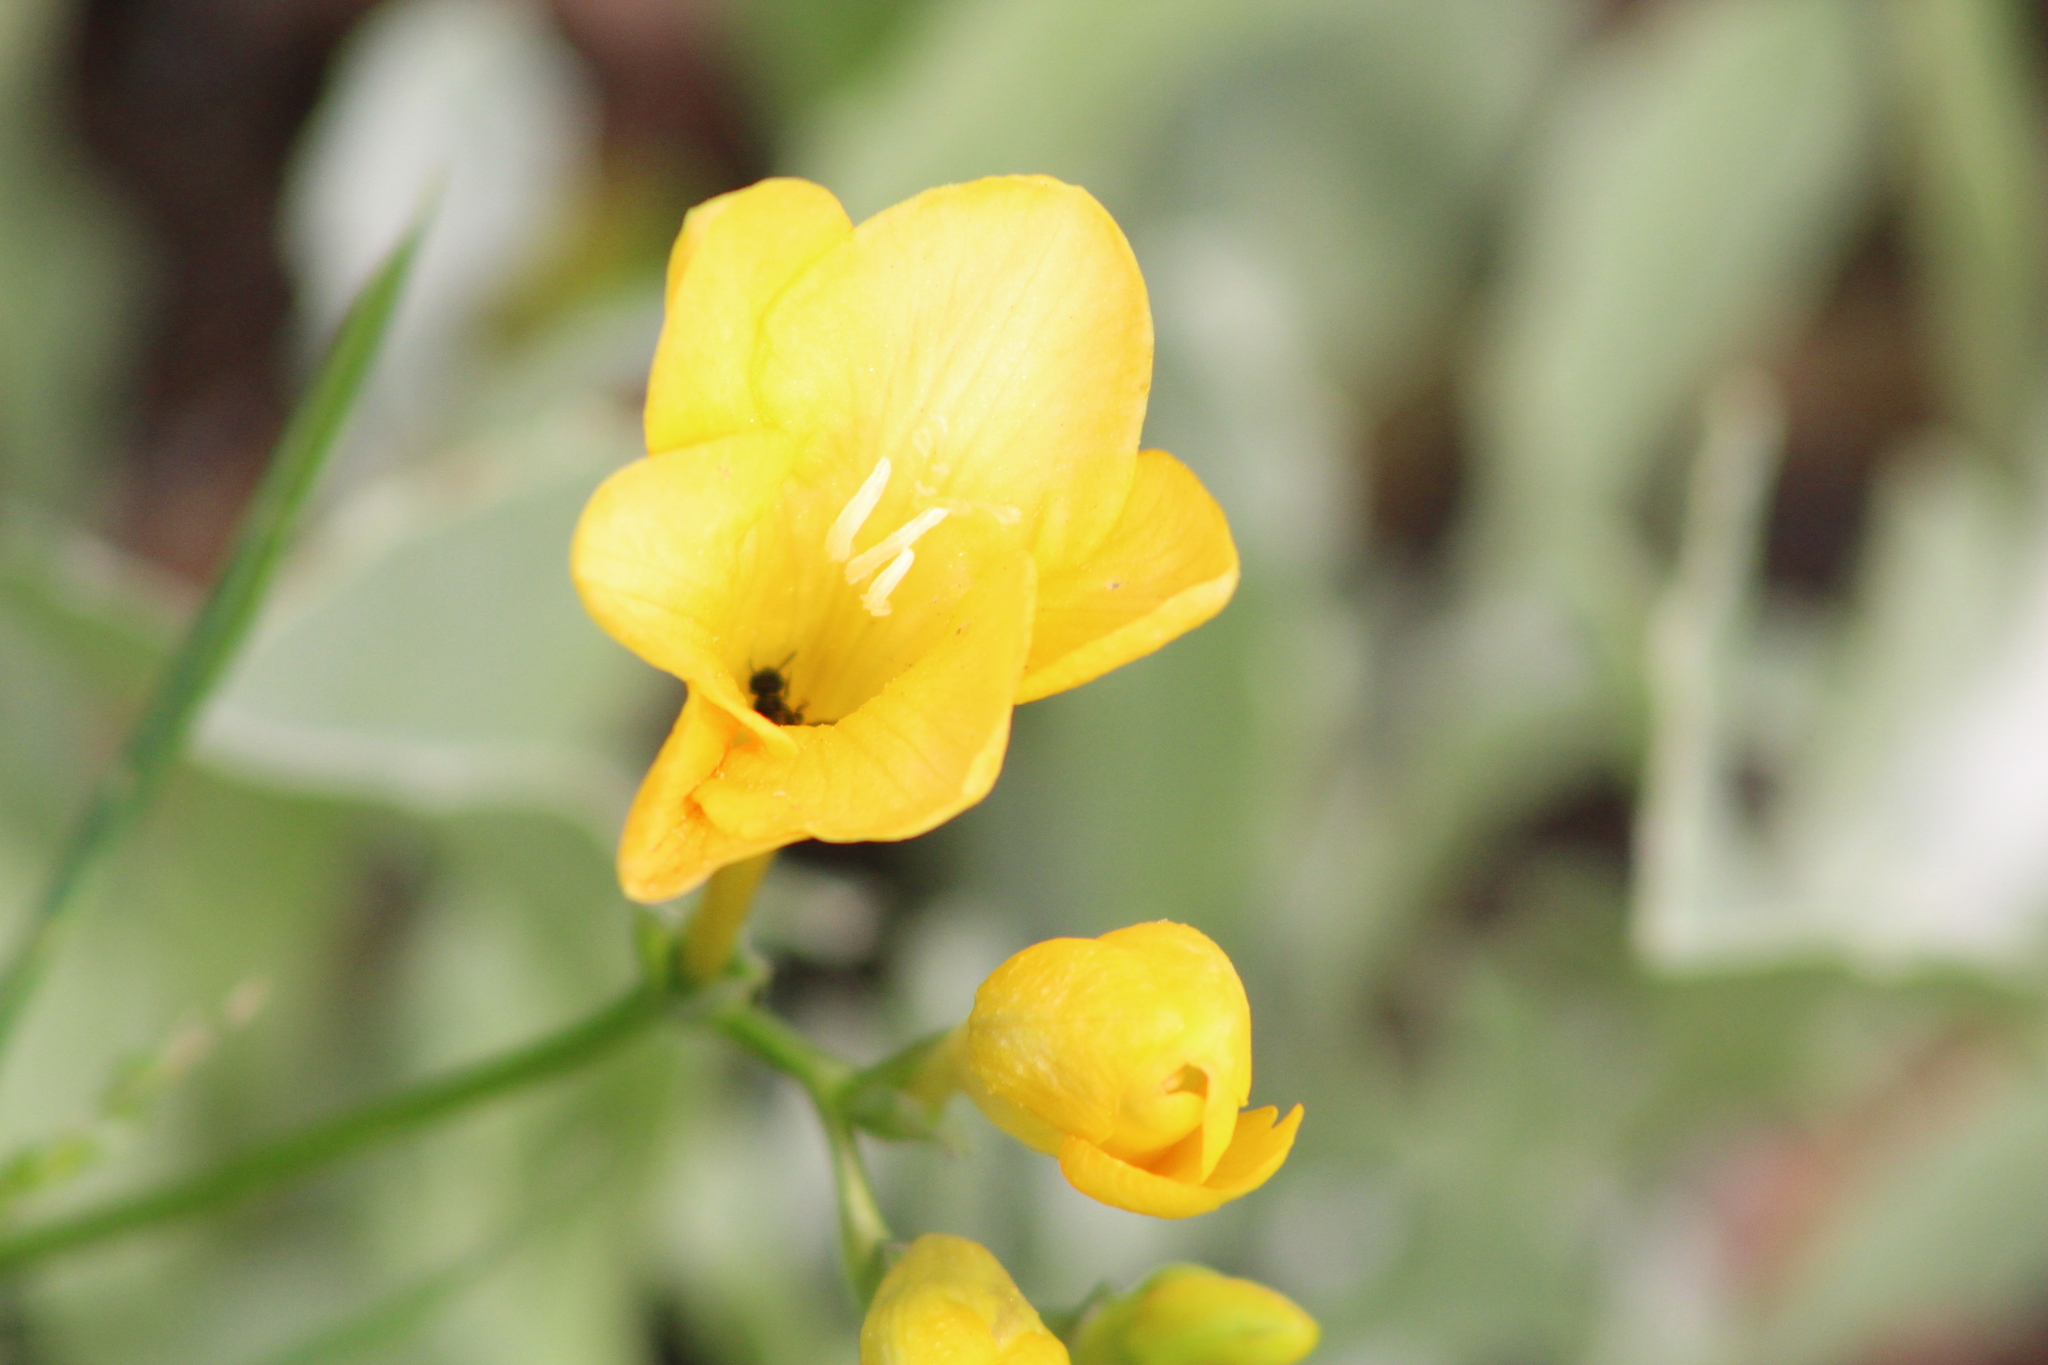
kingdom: Plantae
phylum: Tracheophyta
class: Liliopsida
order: Asparagales
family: Iridaceae
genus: Freesia
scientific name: Freesia corymbosa
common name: Common freesia
